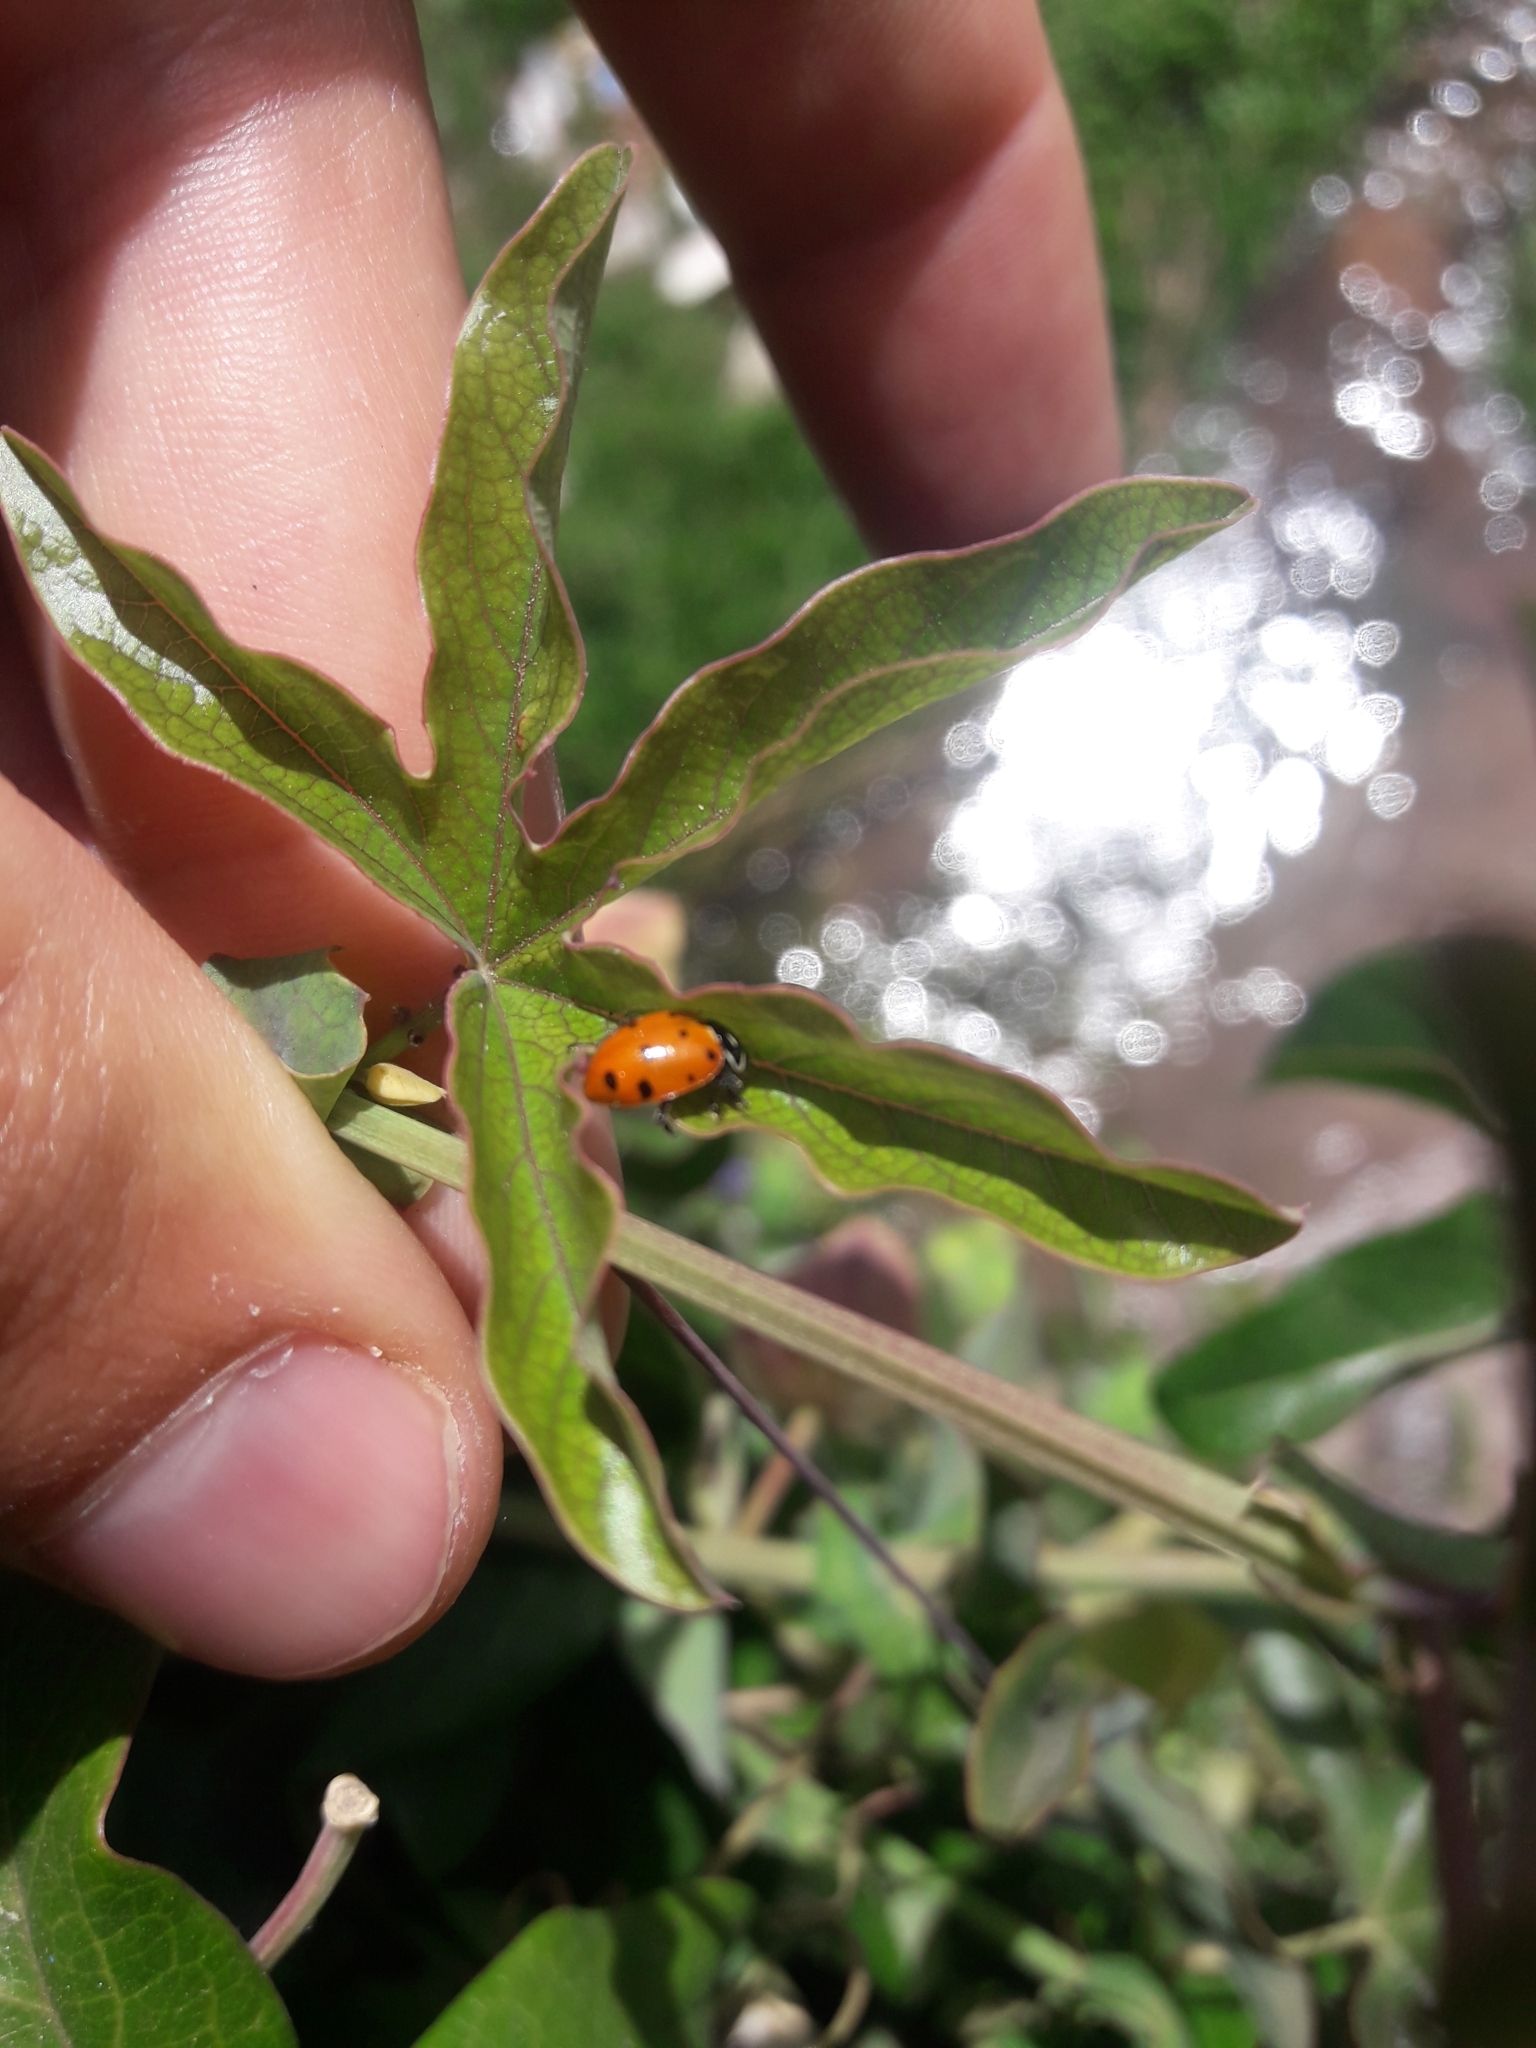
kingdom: Animalia
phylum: Arthropoda
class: Insecta
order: Coleoptera
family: Coccinellidae
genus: Hippodamia
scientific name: Hippodamia convergens
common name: Convergent lady beetle
